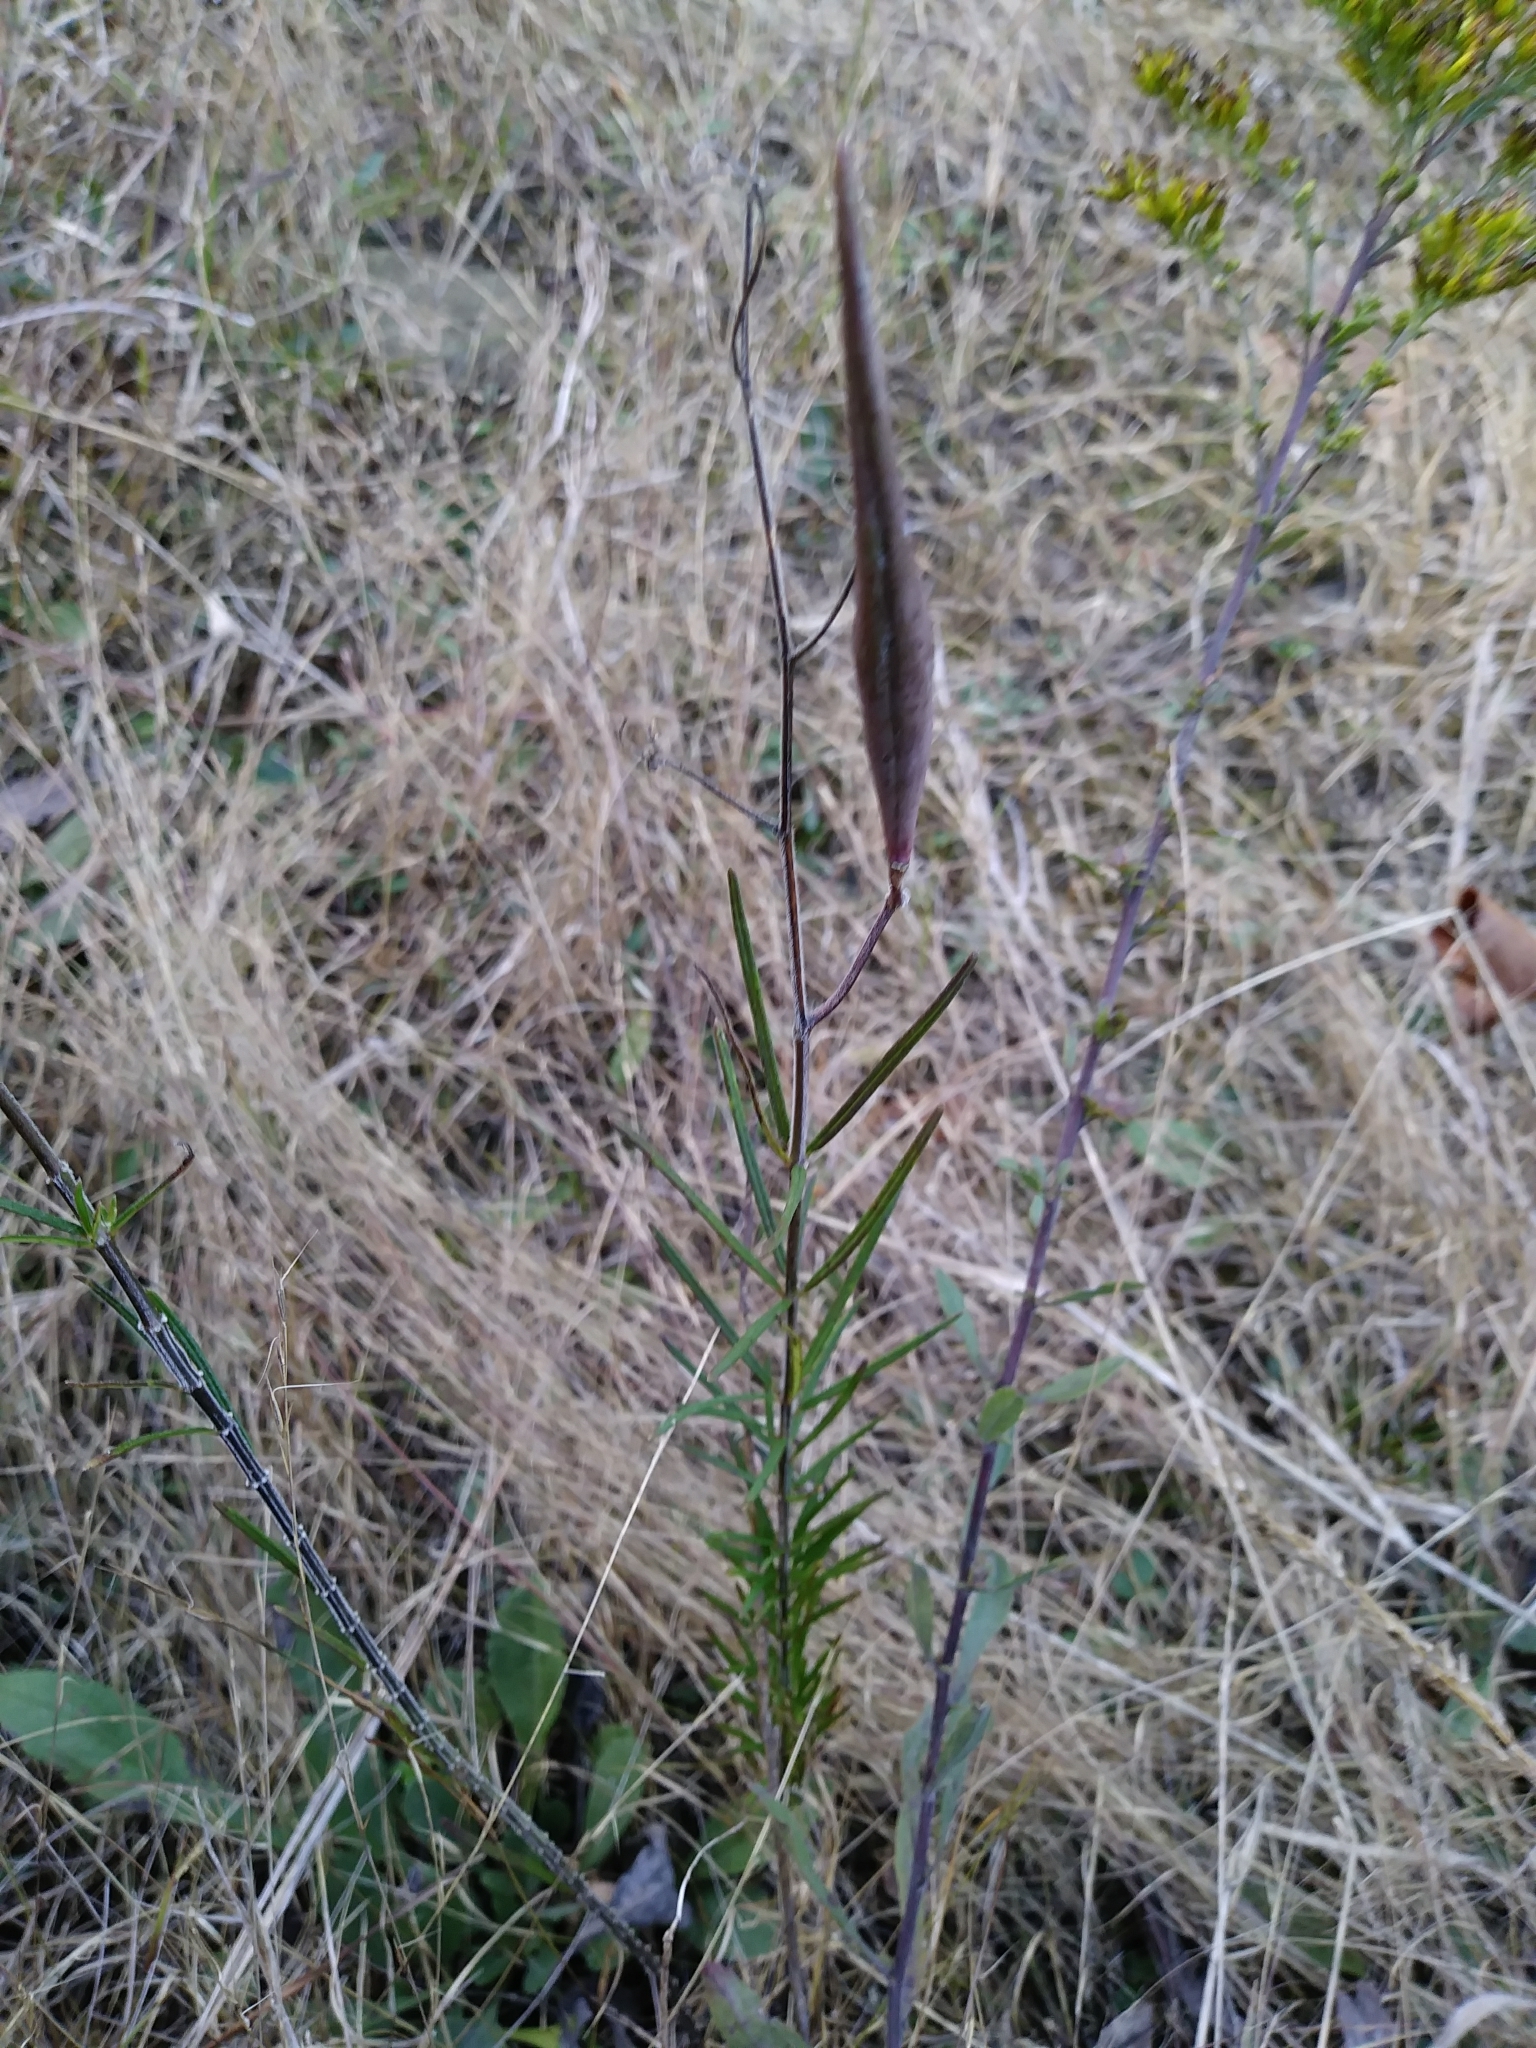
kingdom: Plantae
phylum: Tracheophyta
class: Magnoliopsida
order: Gentianales
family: Apocynaceae
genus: Asclepias
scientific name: Asclepias verticillata
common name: Eastern whorled milkweed
